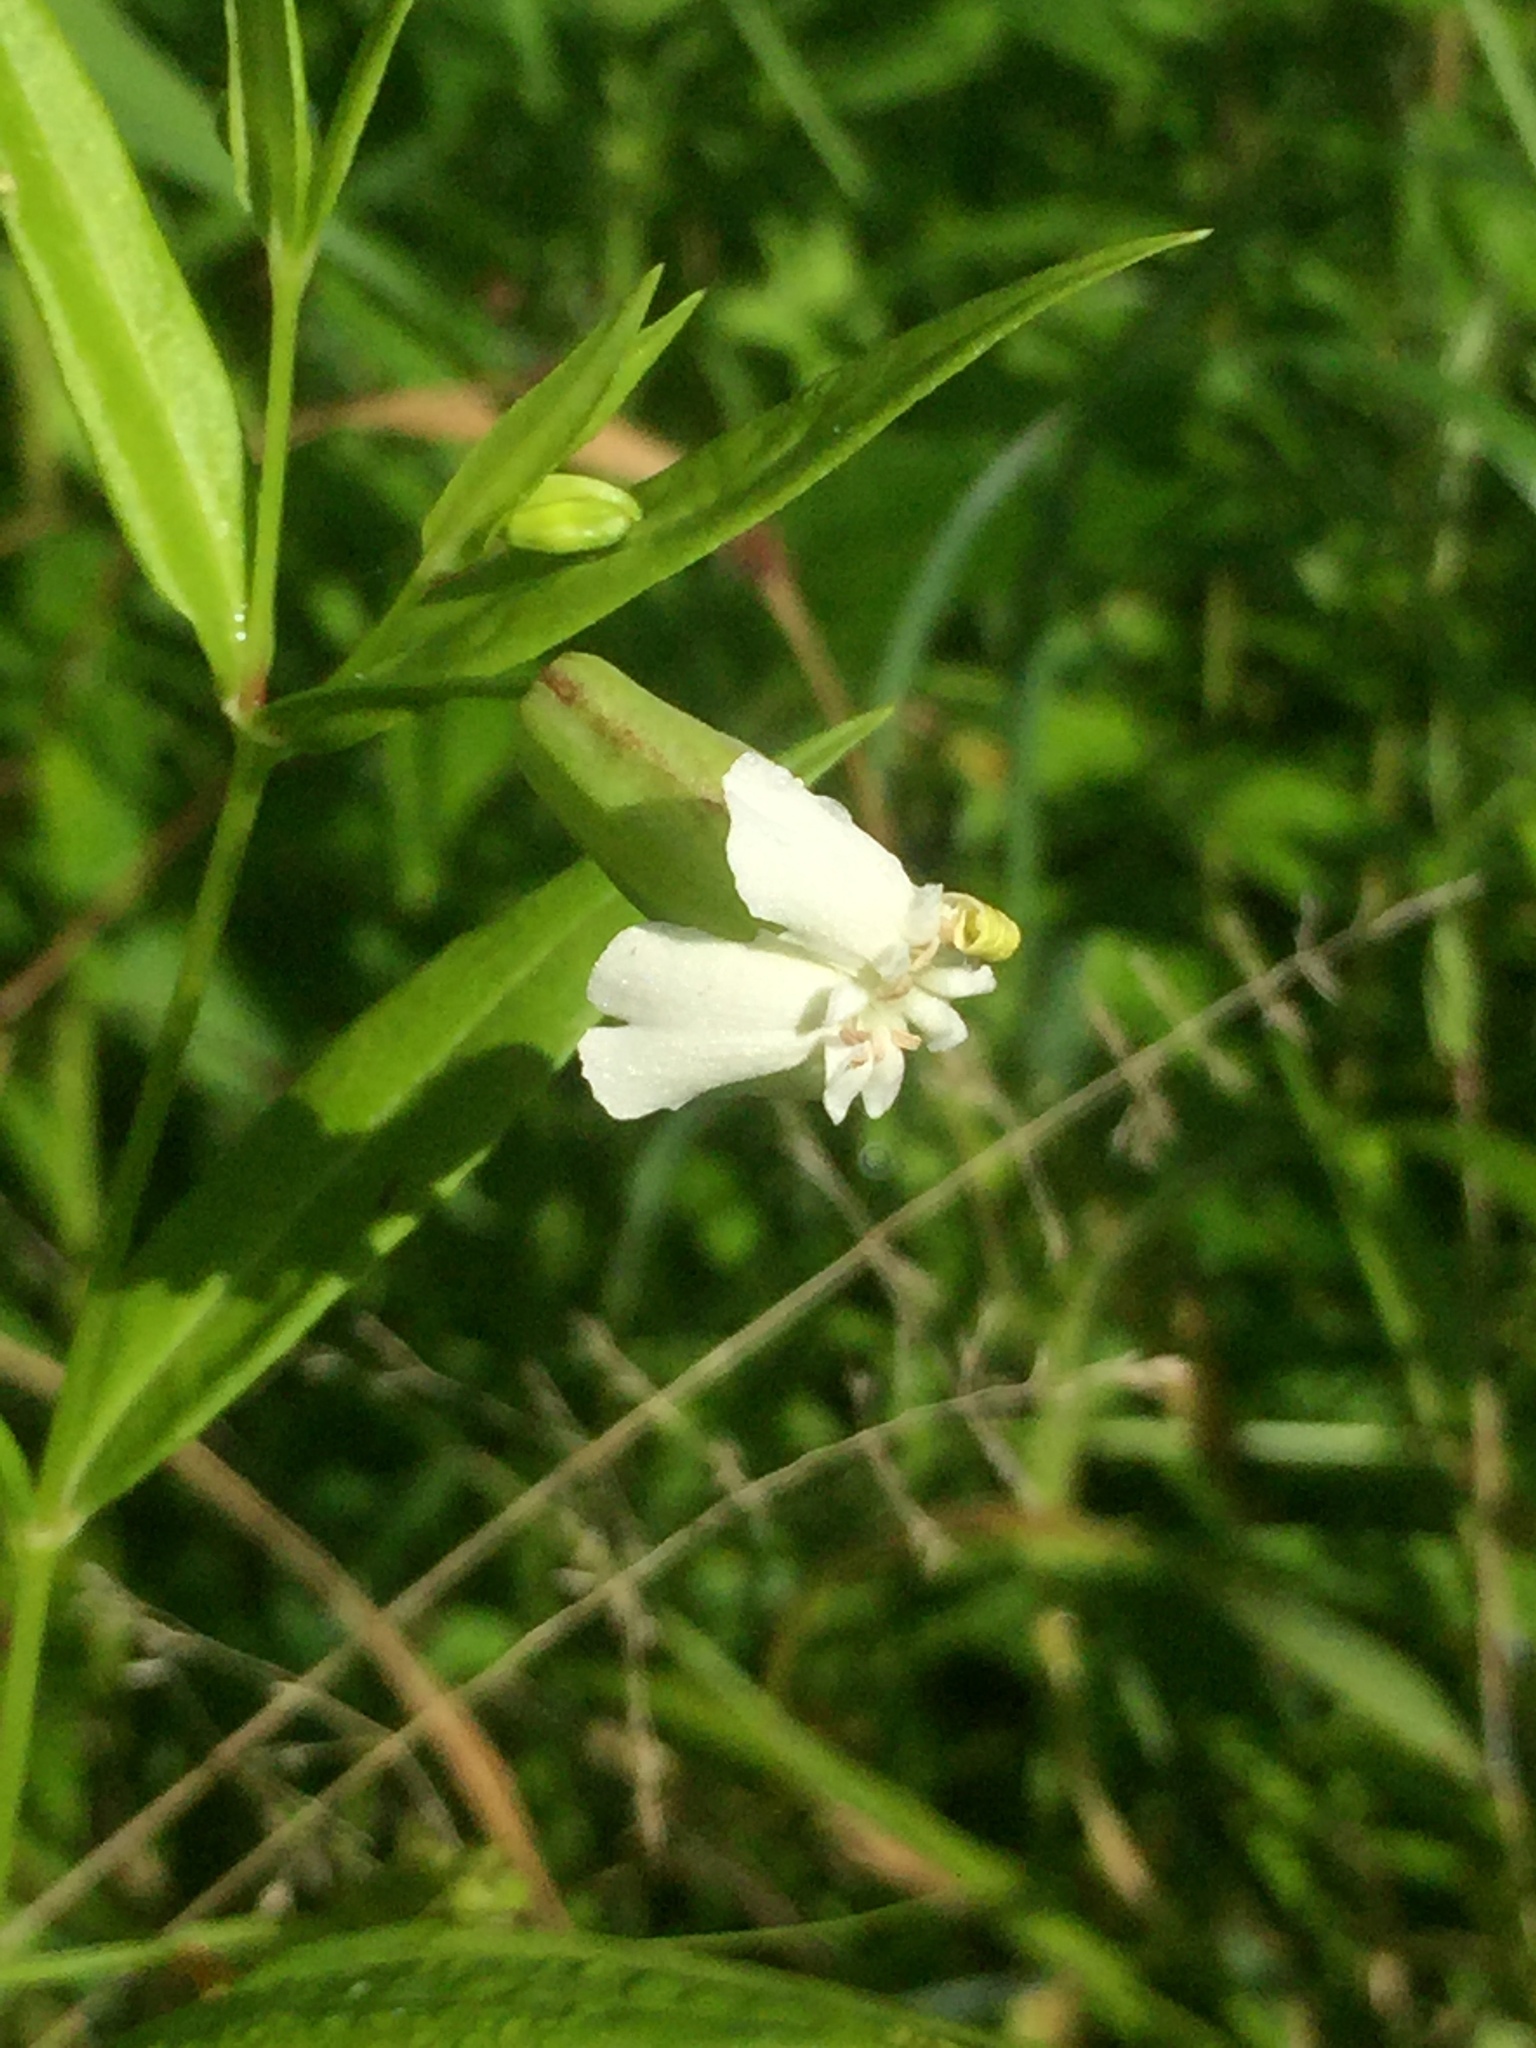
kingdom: Plantae
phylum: Tracheophyta
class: Magnoliopsida
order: Caryophyllales
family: Caryophyllaceae
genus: Saponaria
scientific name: Saponaria officinalis
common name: Soapwort
